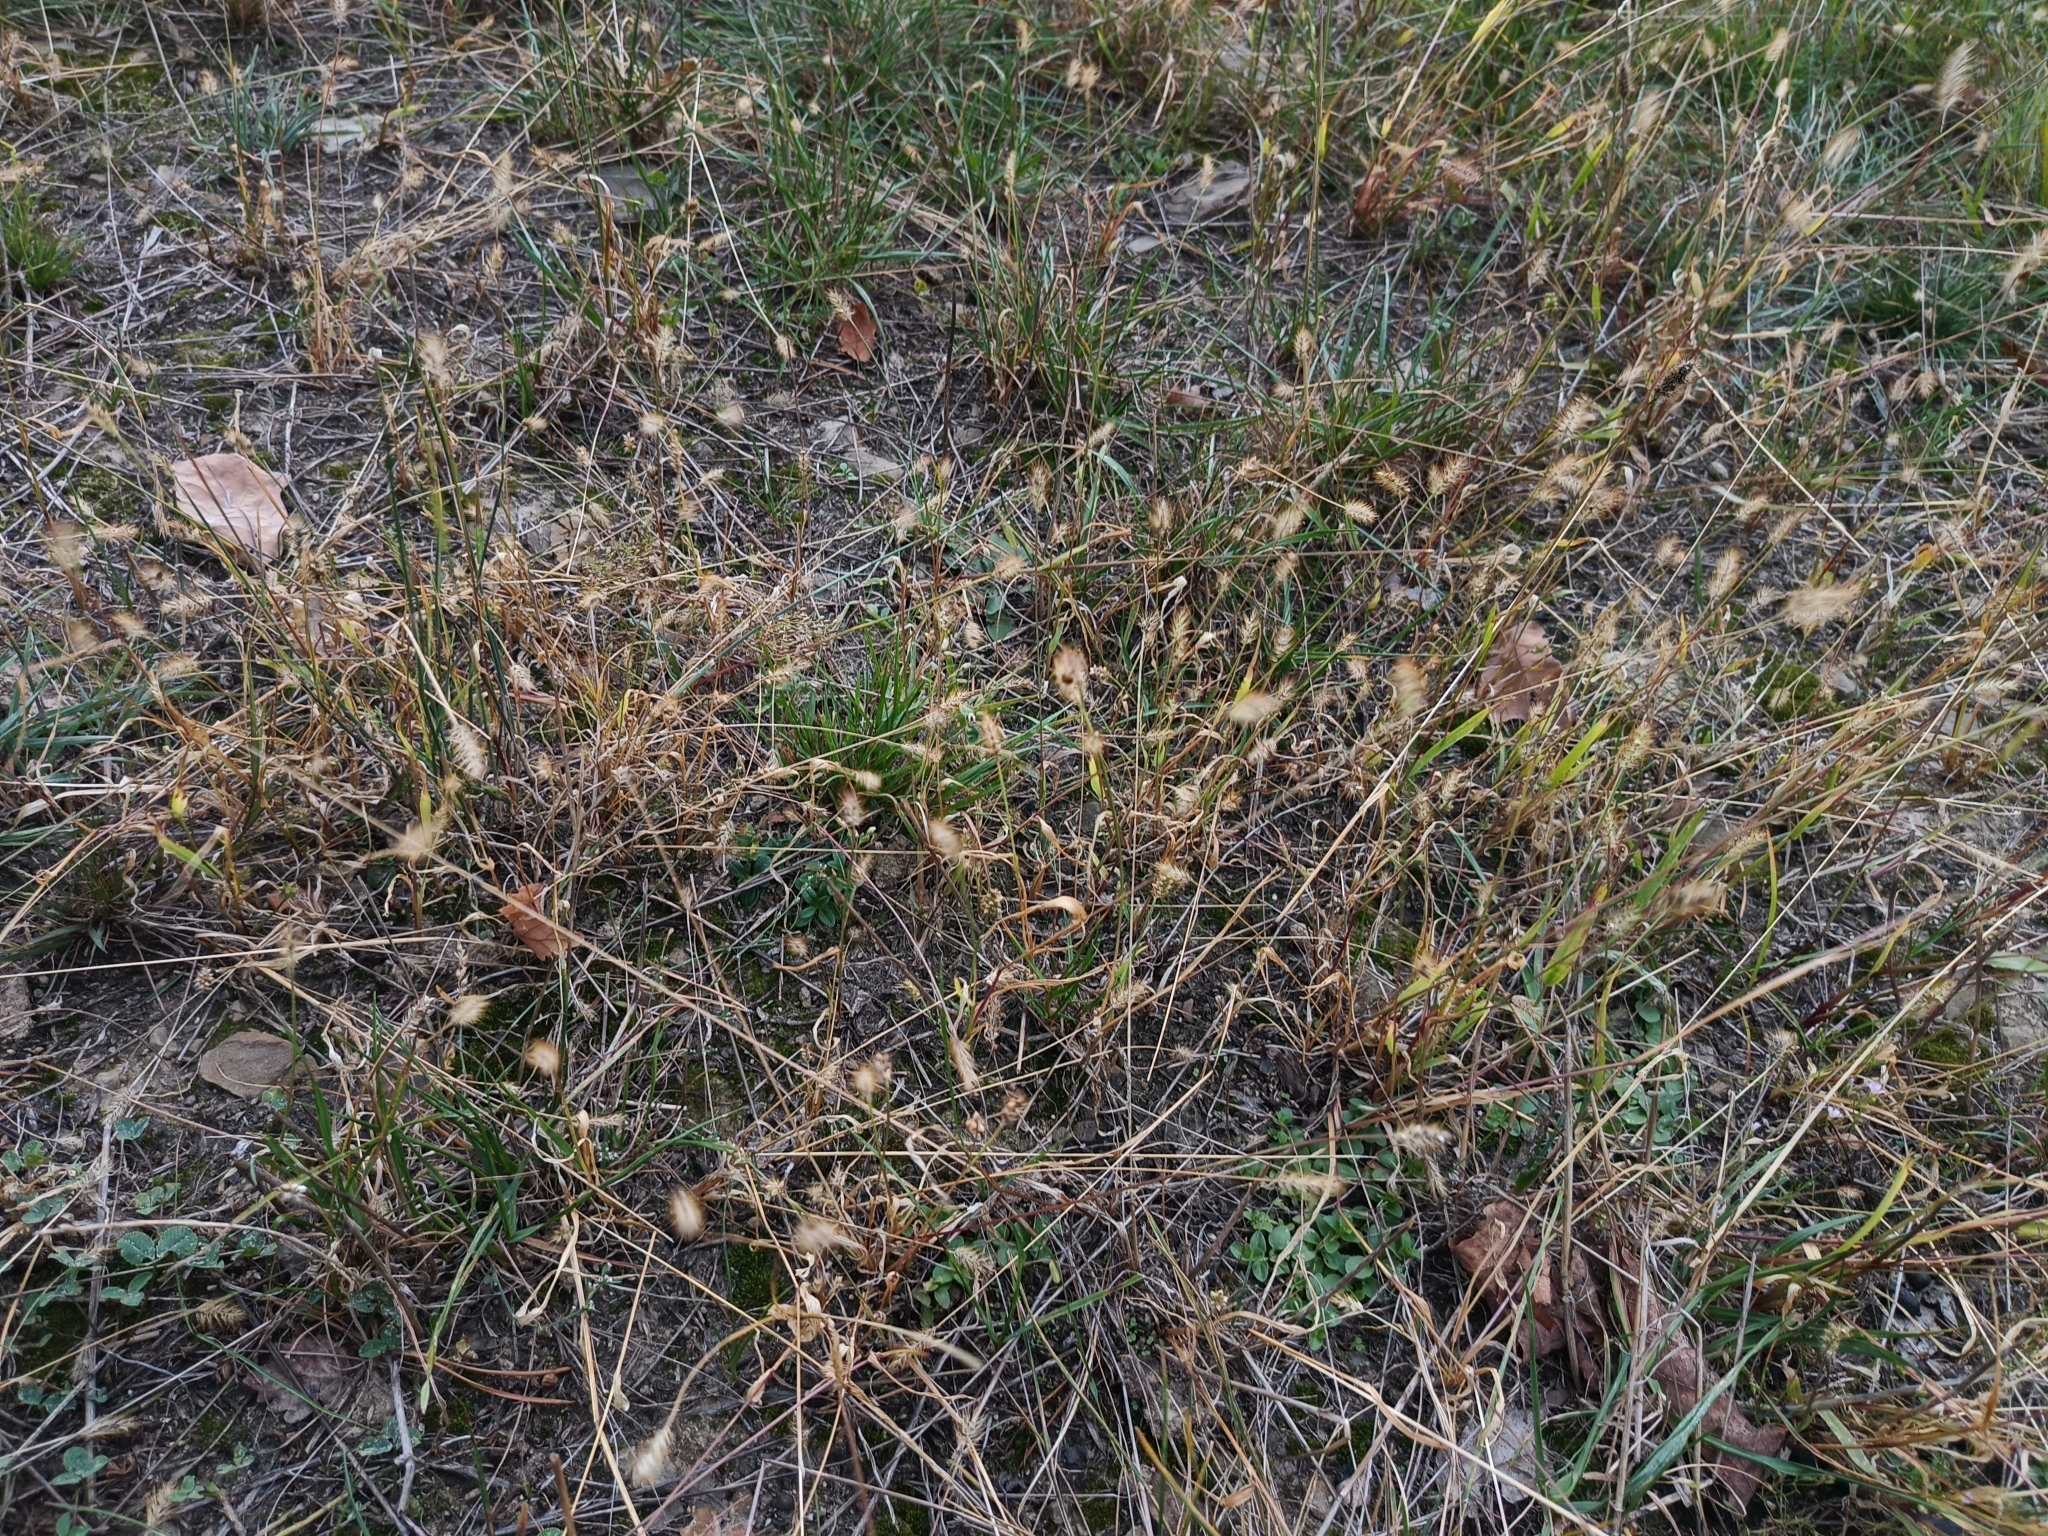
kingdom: Plantae
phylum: Tracheophyta
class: Liliopsida
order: Poales
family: Poaceae
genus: Setaria
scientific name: Setaria pumila
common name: Yellow bristle-grass
